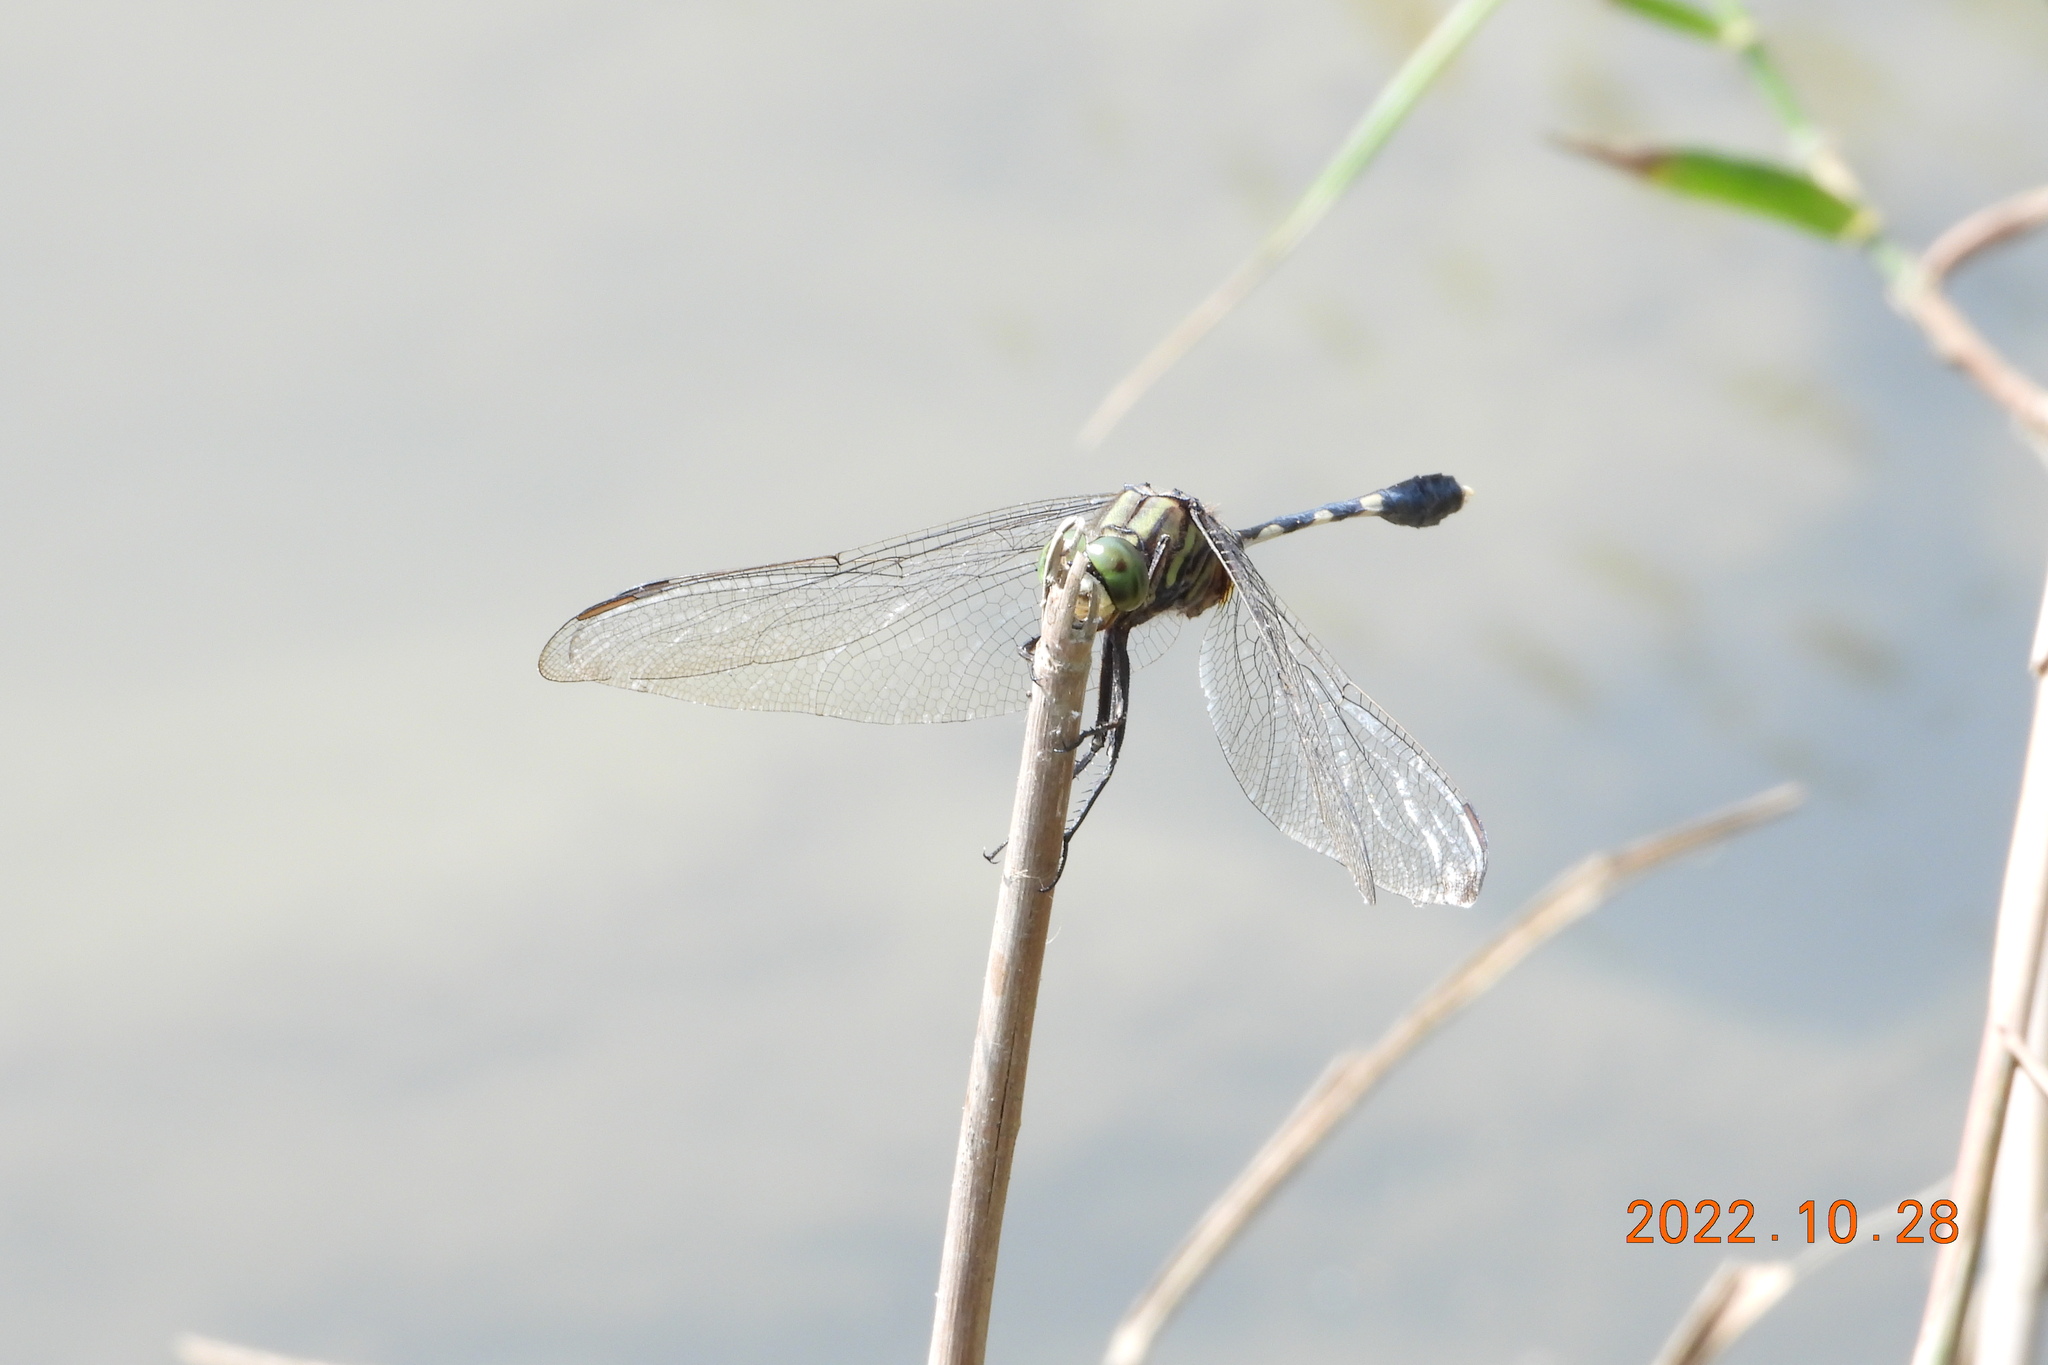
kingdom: Animalia
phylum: Arthropoda
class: Insecta
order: Odonata
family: Libellulidae
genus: Orthetrum
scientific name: Orthetrum sabina
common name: Slender skimmer
